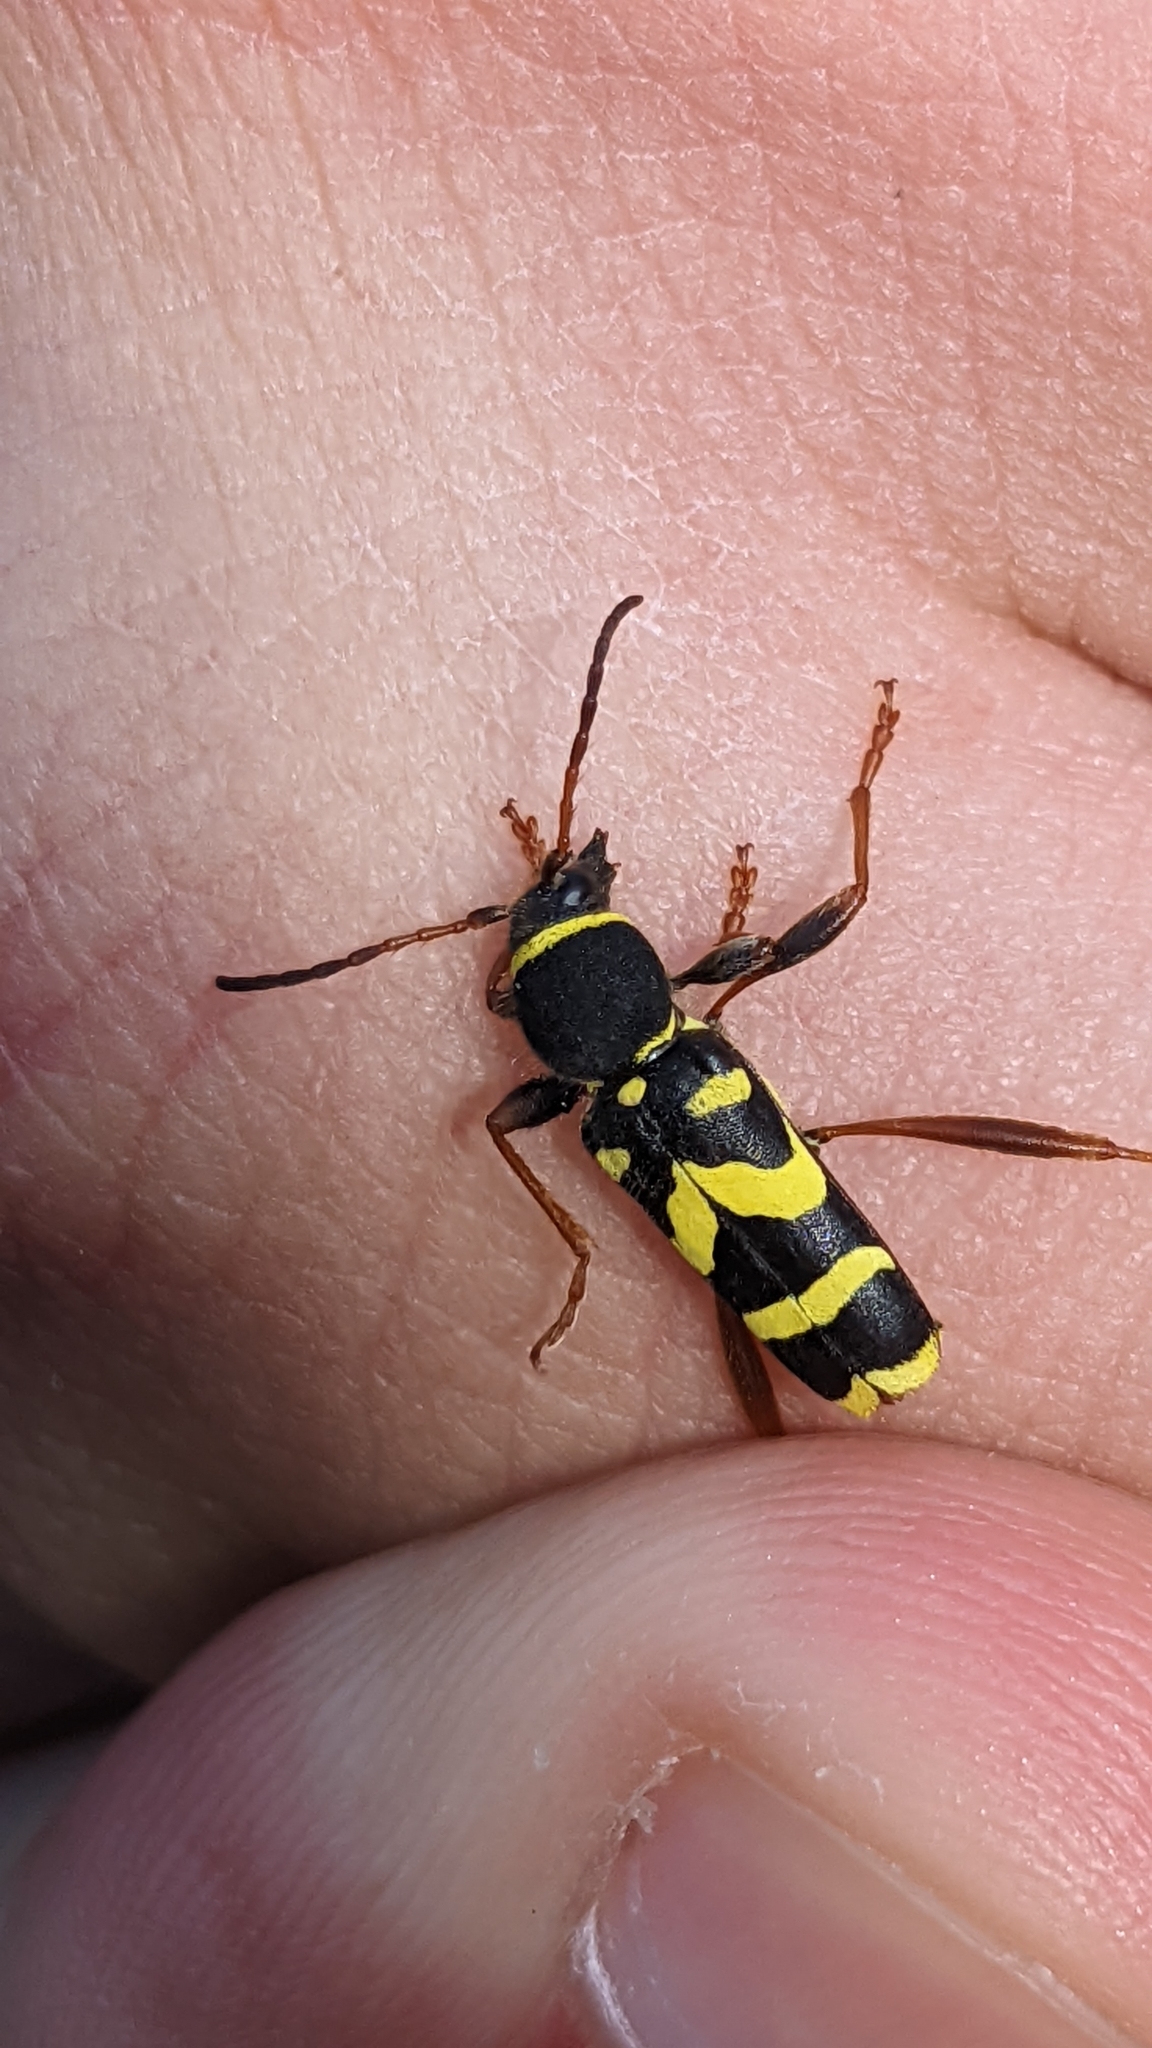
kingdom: Animalia
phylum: Arthropoda
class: Insecta
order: Coleoptera
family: Cerambycidae
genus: Clytus
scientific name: Clytus arietis
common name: Wasp beetle
